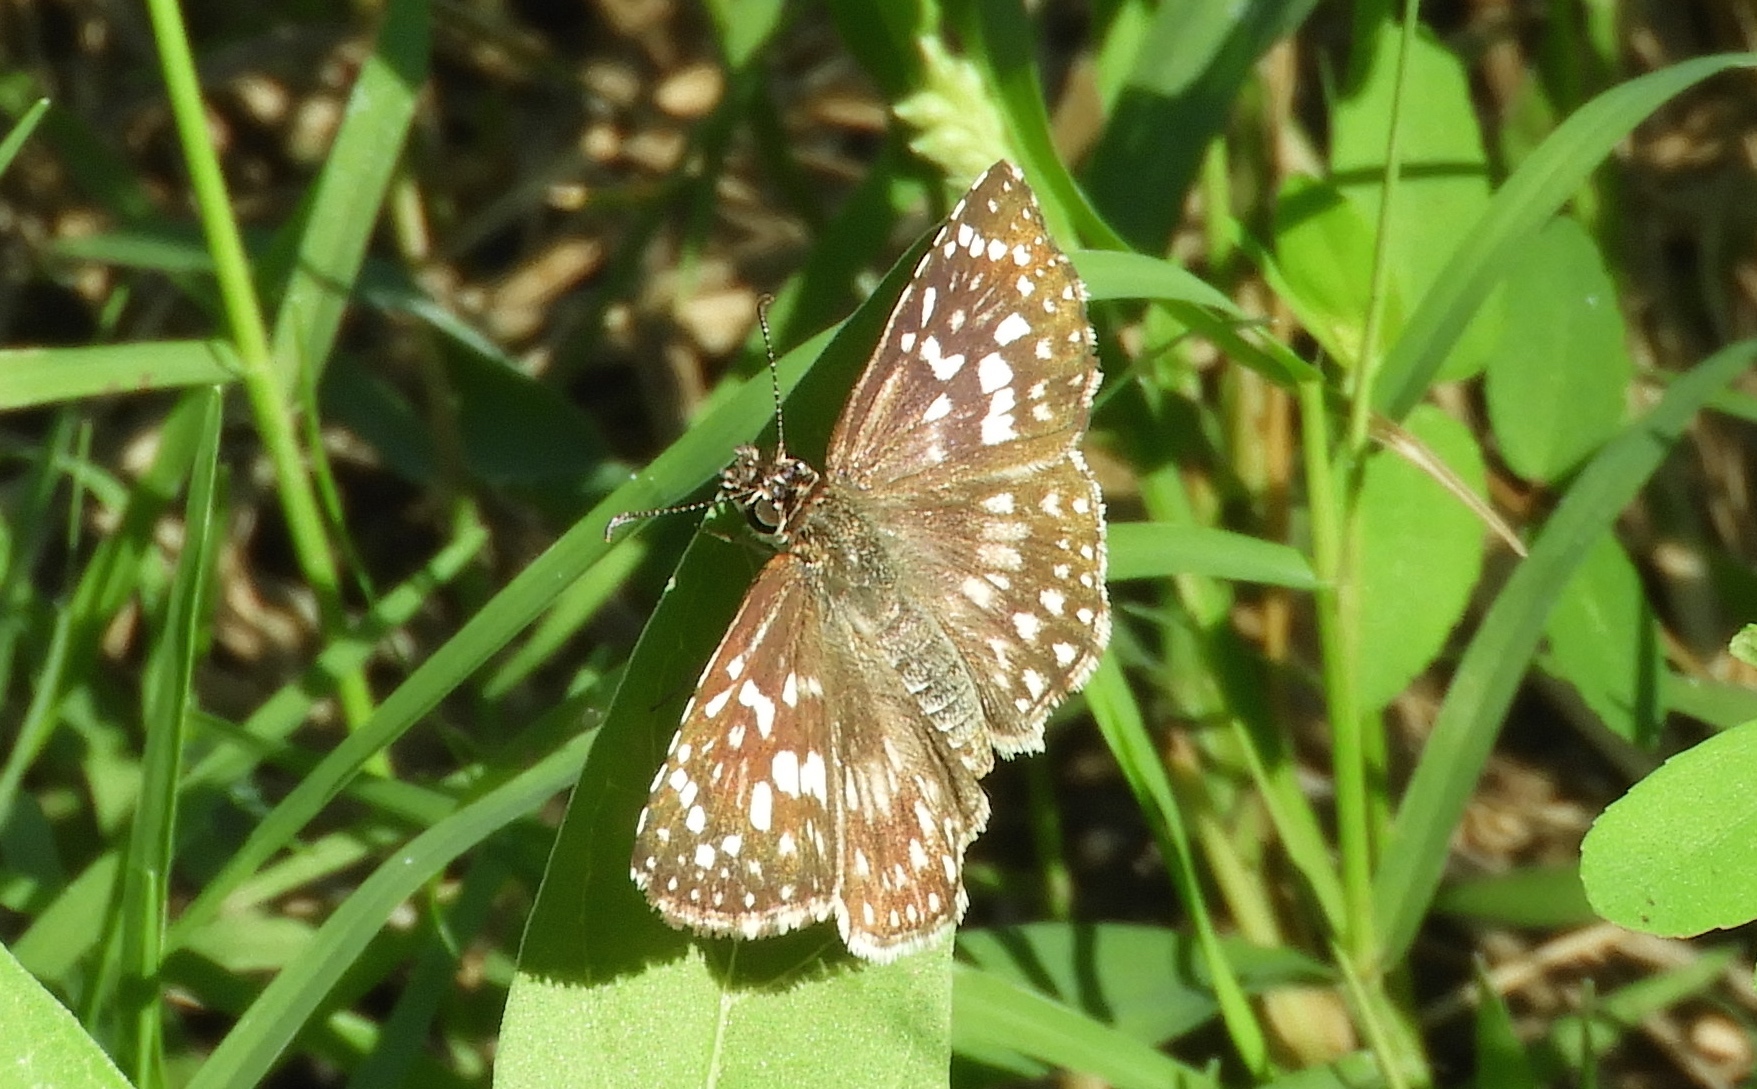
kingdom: Animalia
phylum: Arthropoda
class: Insecta
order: Lepidoptera
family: Hesperiidae
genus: Pyrgus
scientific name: Pyrgus oileus
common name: Tropical checkered-skipper
